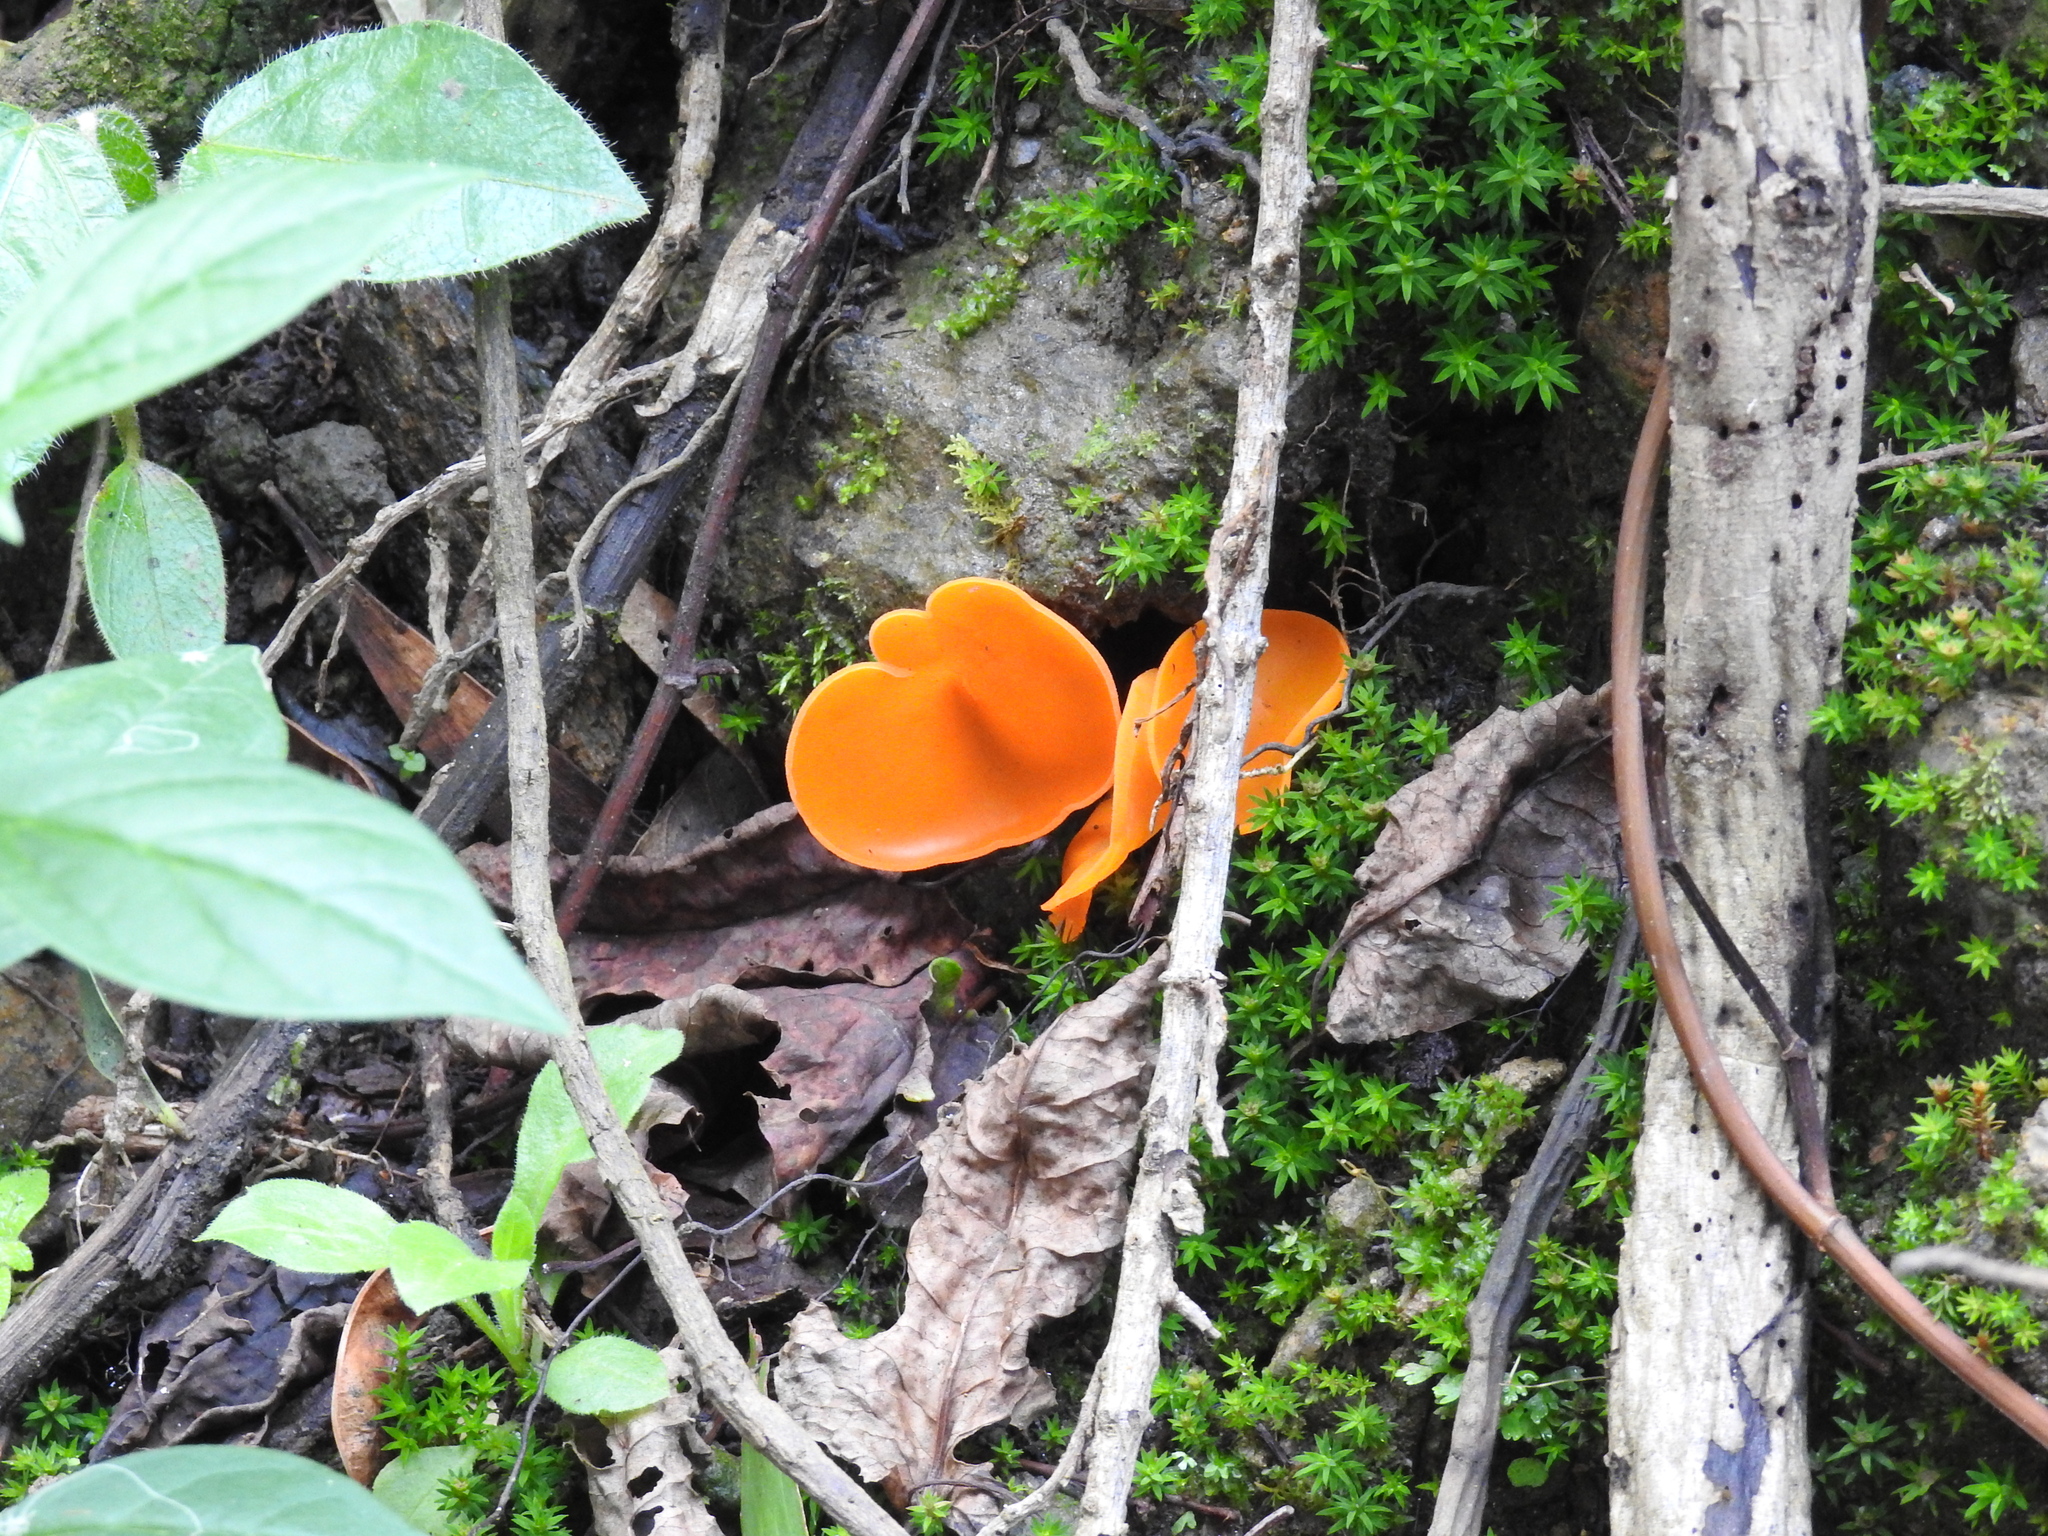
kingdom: Fungi
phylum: Ascomycota
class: Pezizomycetes
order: Pezizales
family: Pyronemataceae
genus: Aleuria
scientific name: Aleuria aurantia
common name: Orange peel fungus
